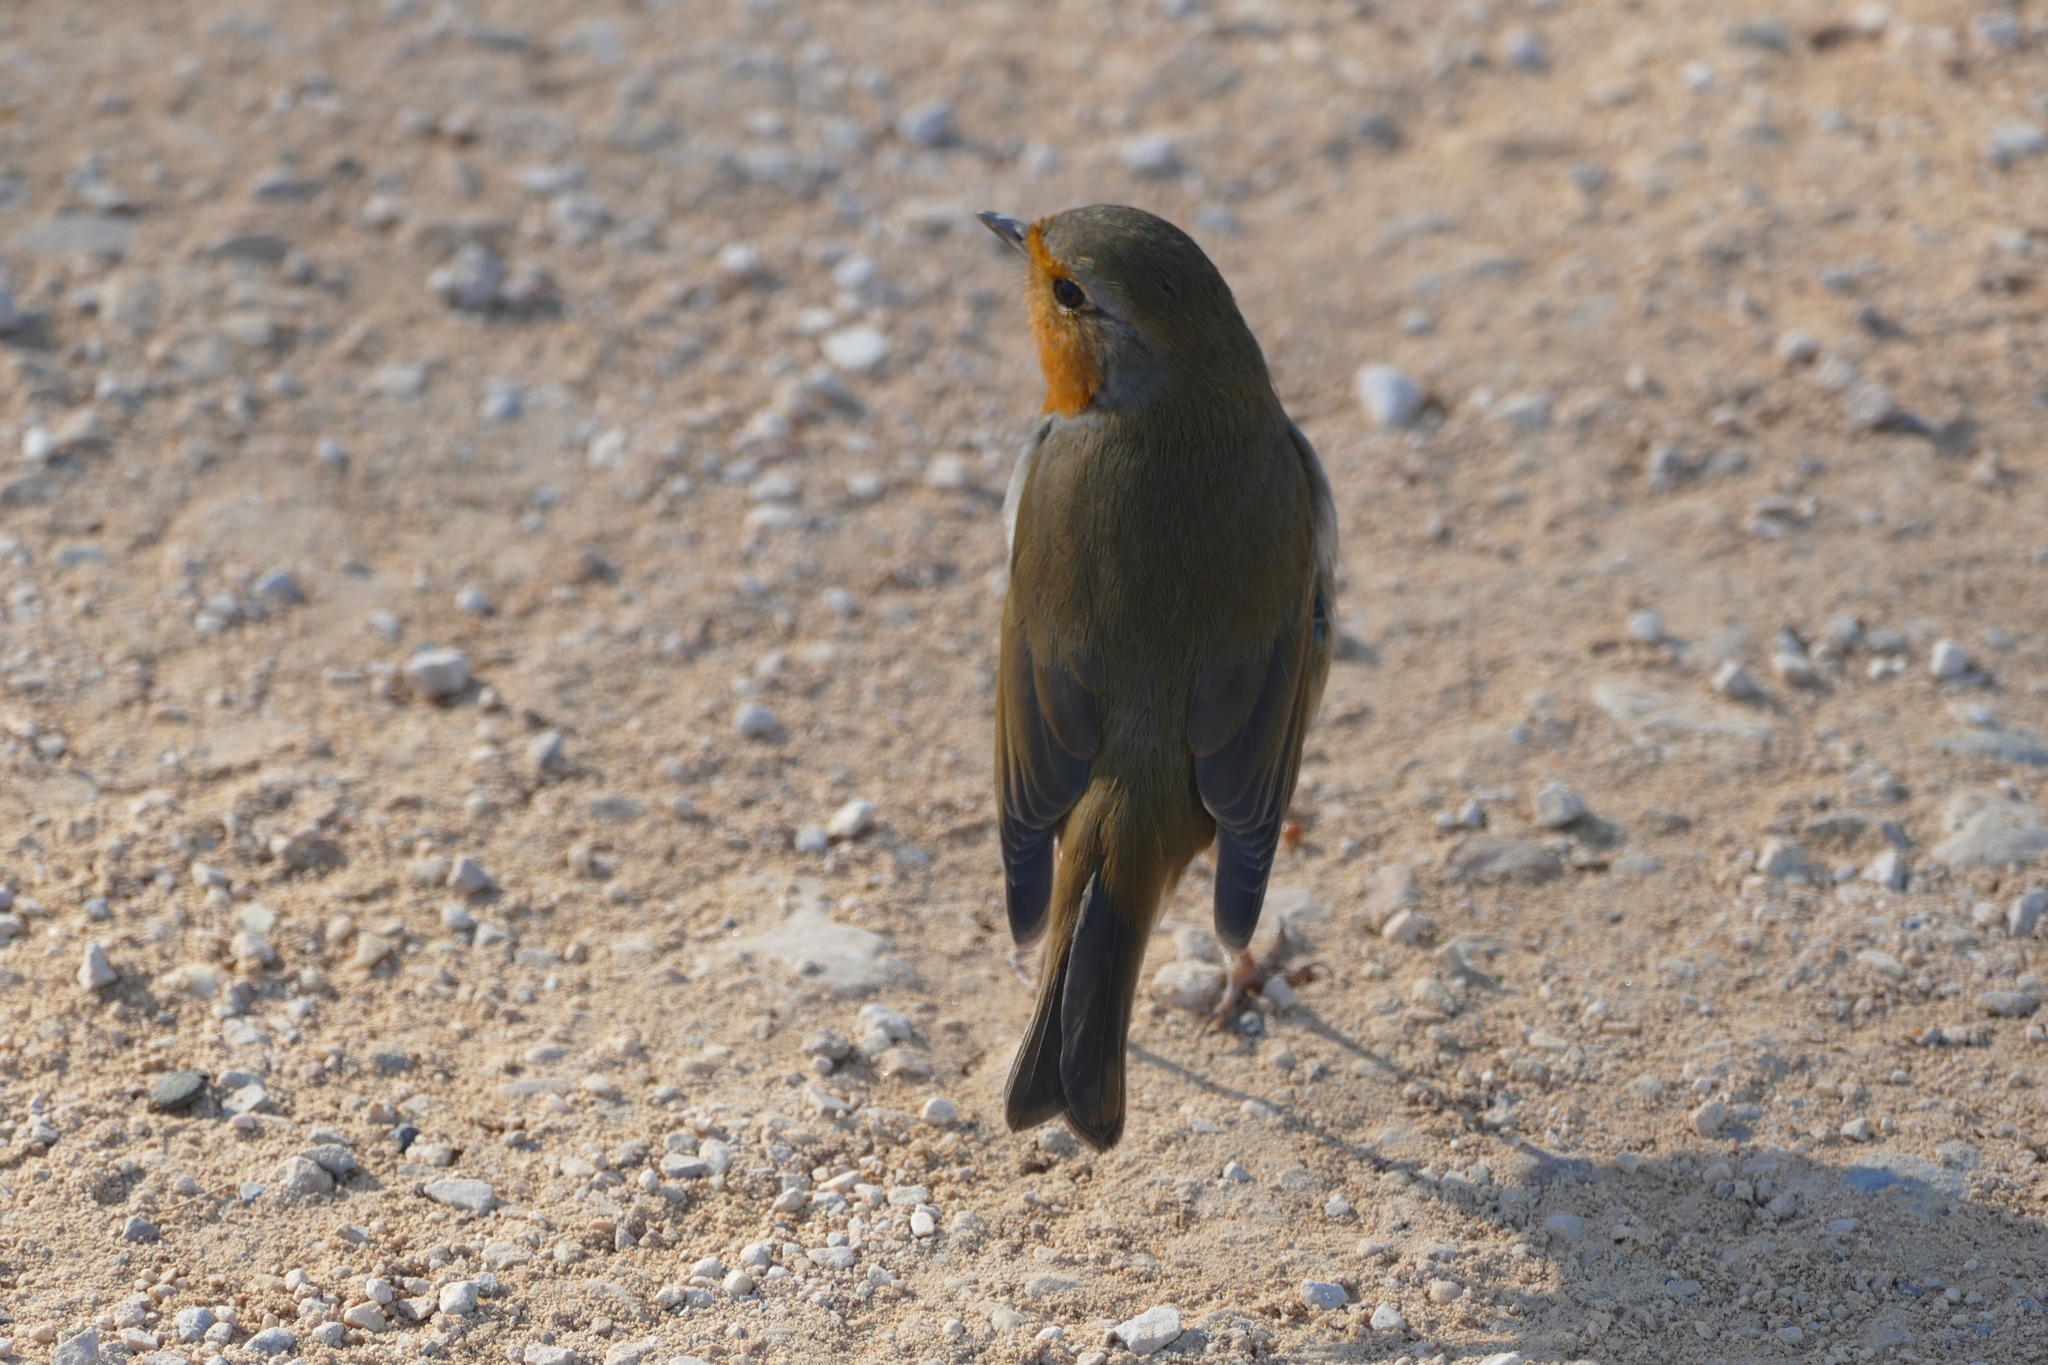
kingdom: Animalia
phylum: Chordata
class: Aves
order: Passeriformes
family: Muscicapidae
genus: Erithacus
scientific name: Erithacus rubecula
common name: European robin
